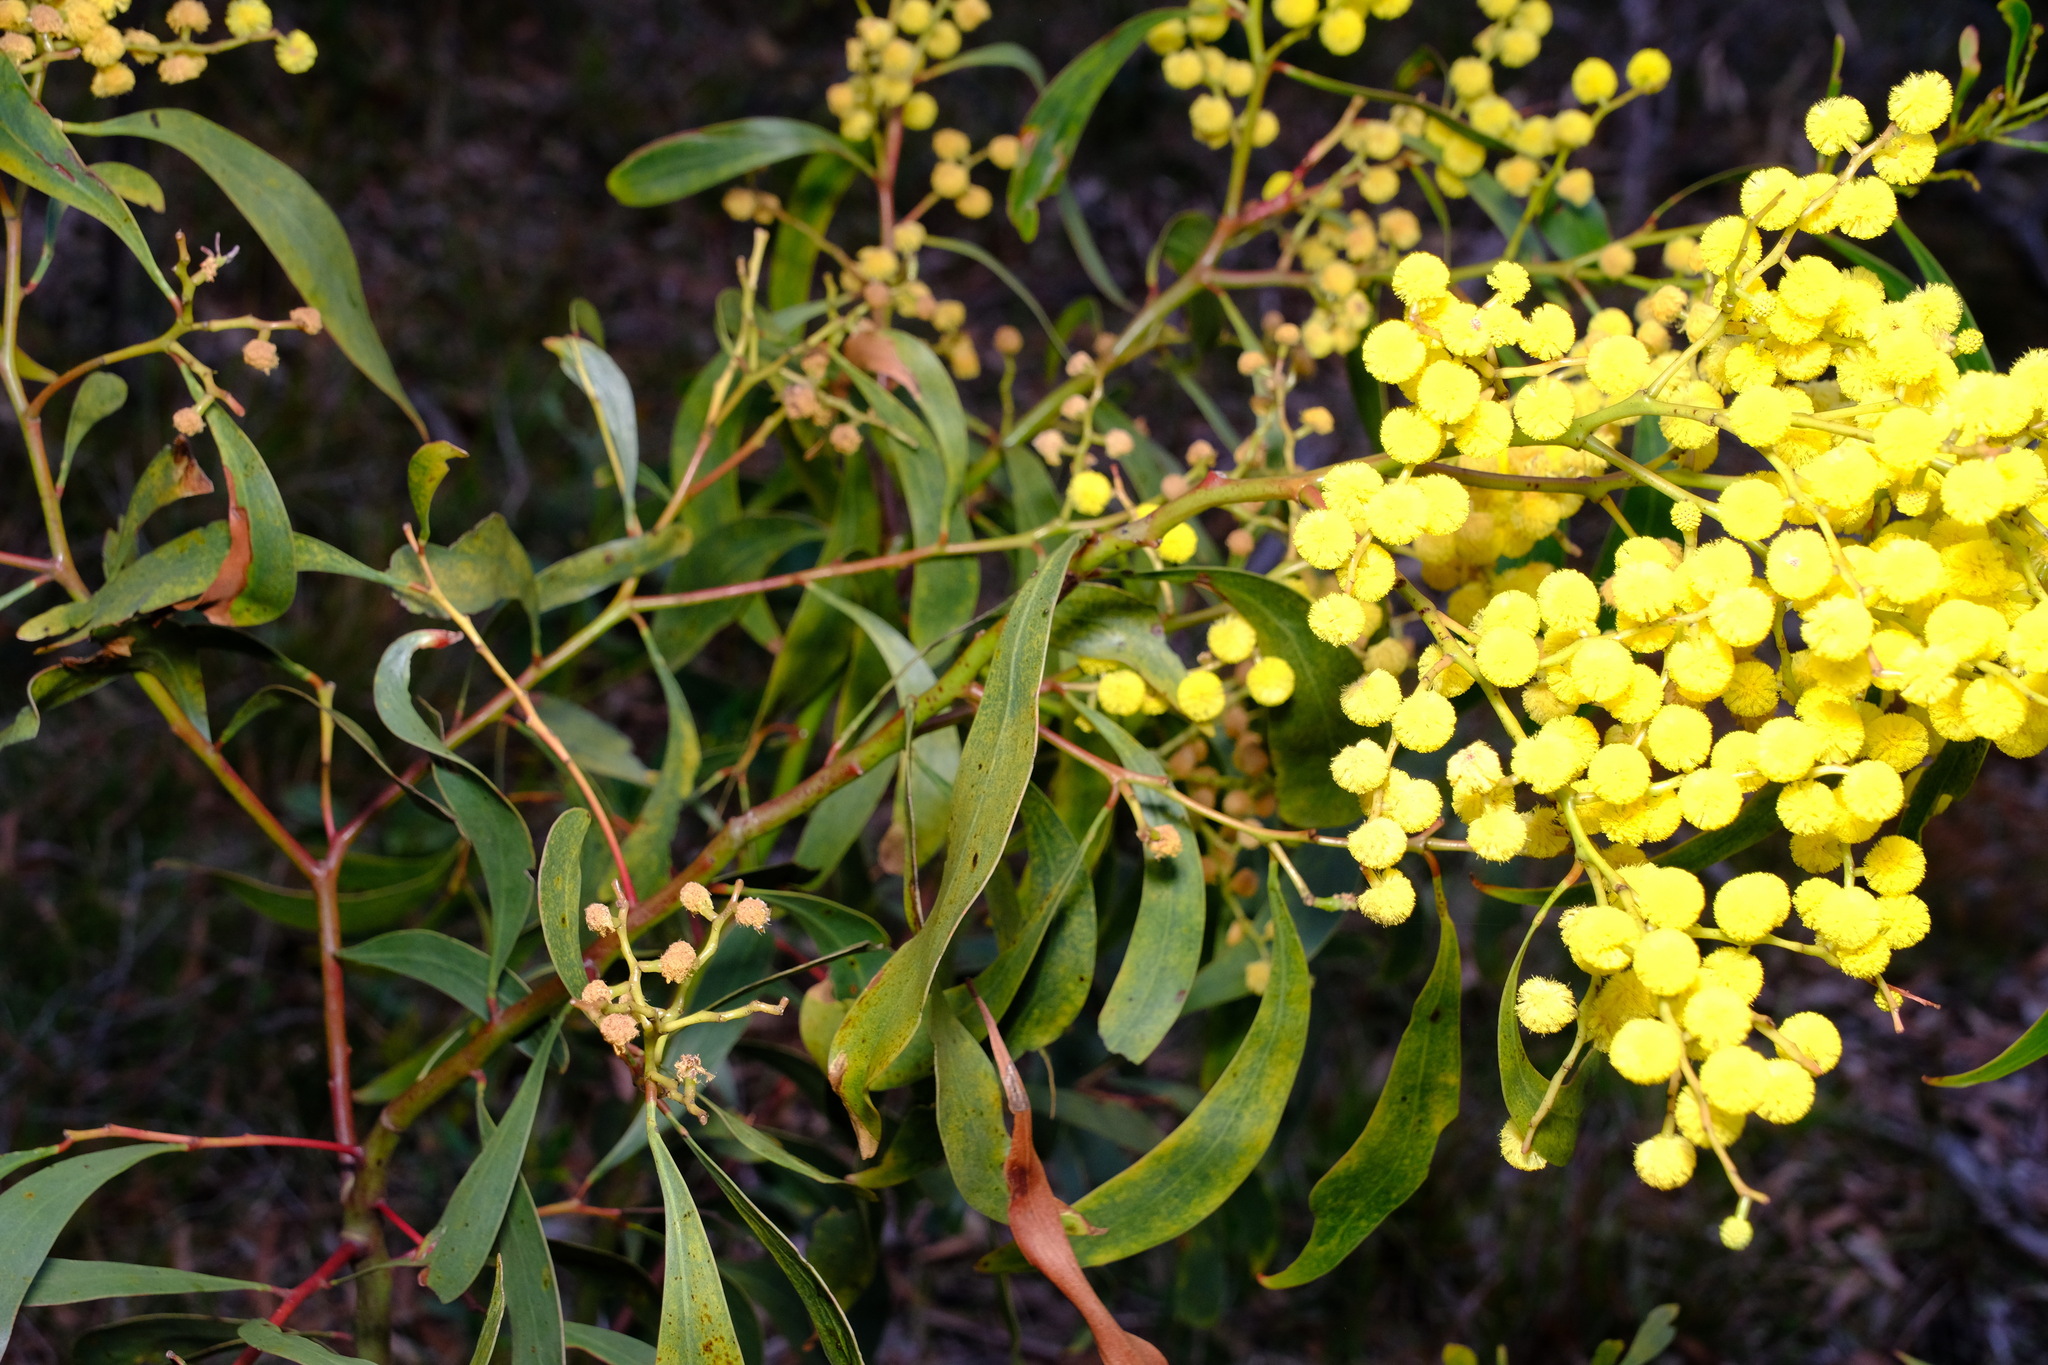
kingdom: Plantae
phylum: Tracheophyta
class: Magnoliopsida
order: Fabales
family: Fabaceae
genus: Acacia
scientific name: Acacia pycnantha
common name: Golden wattle
